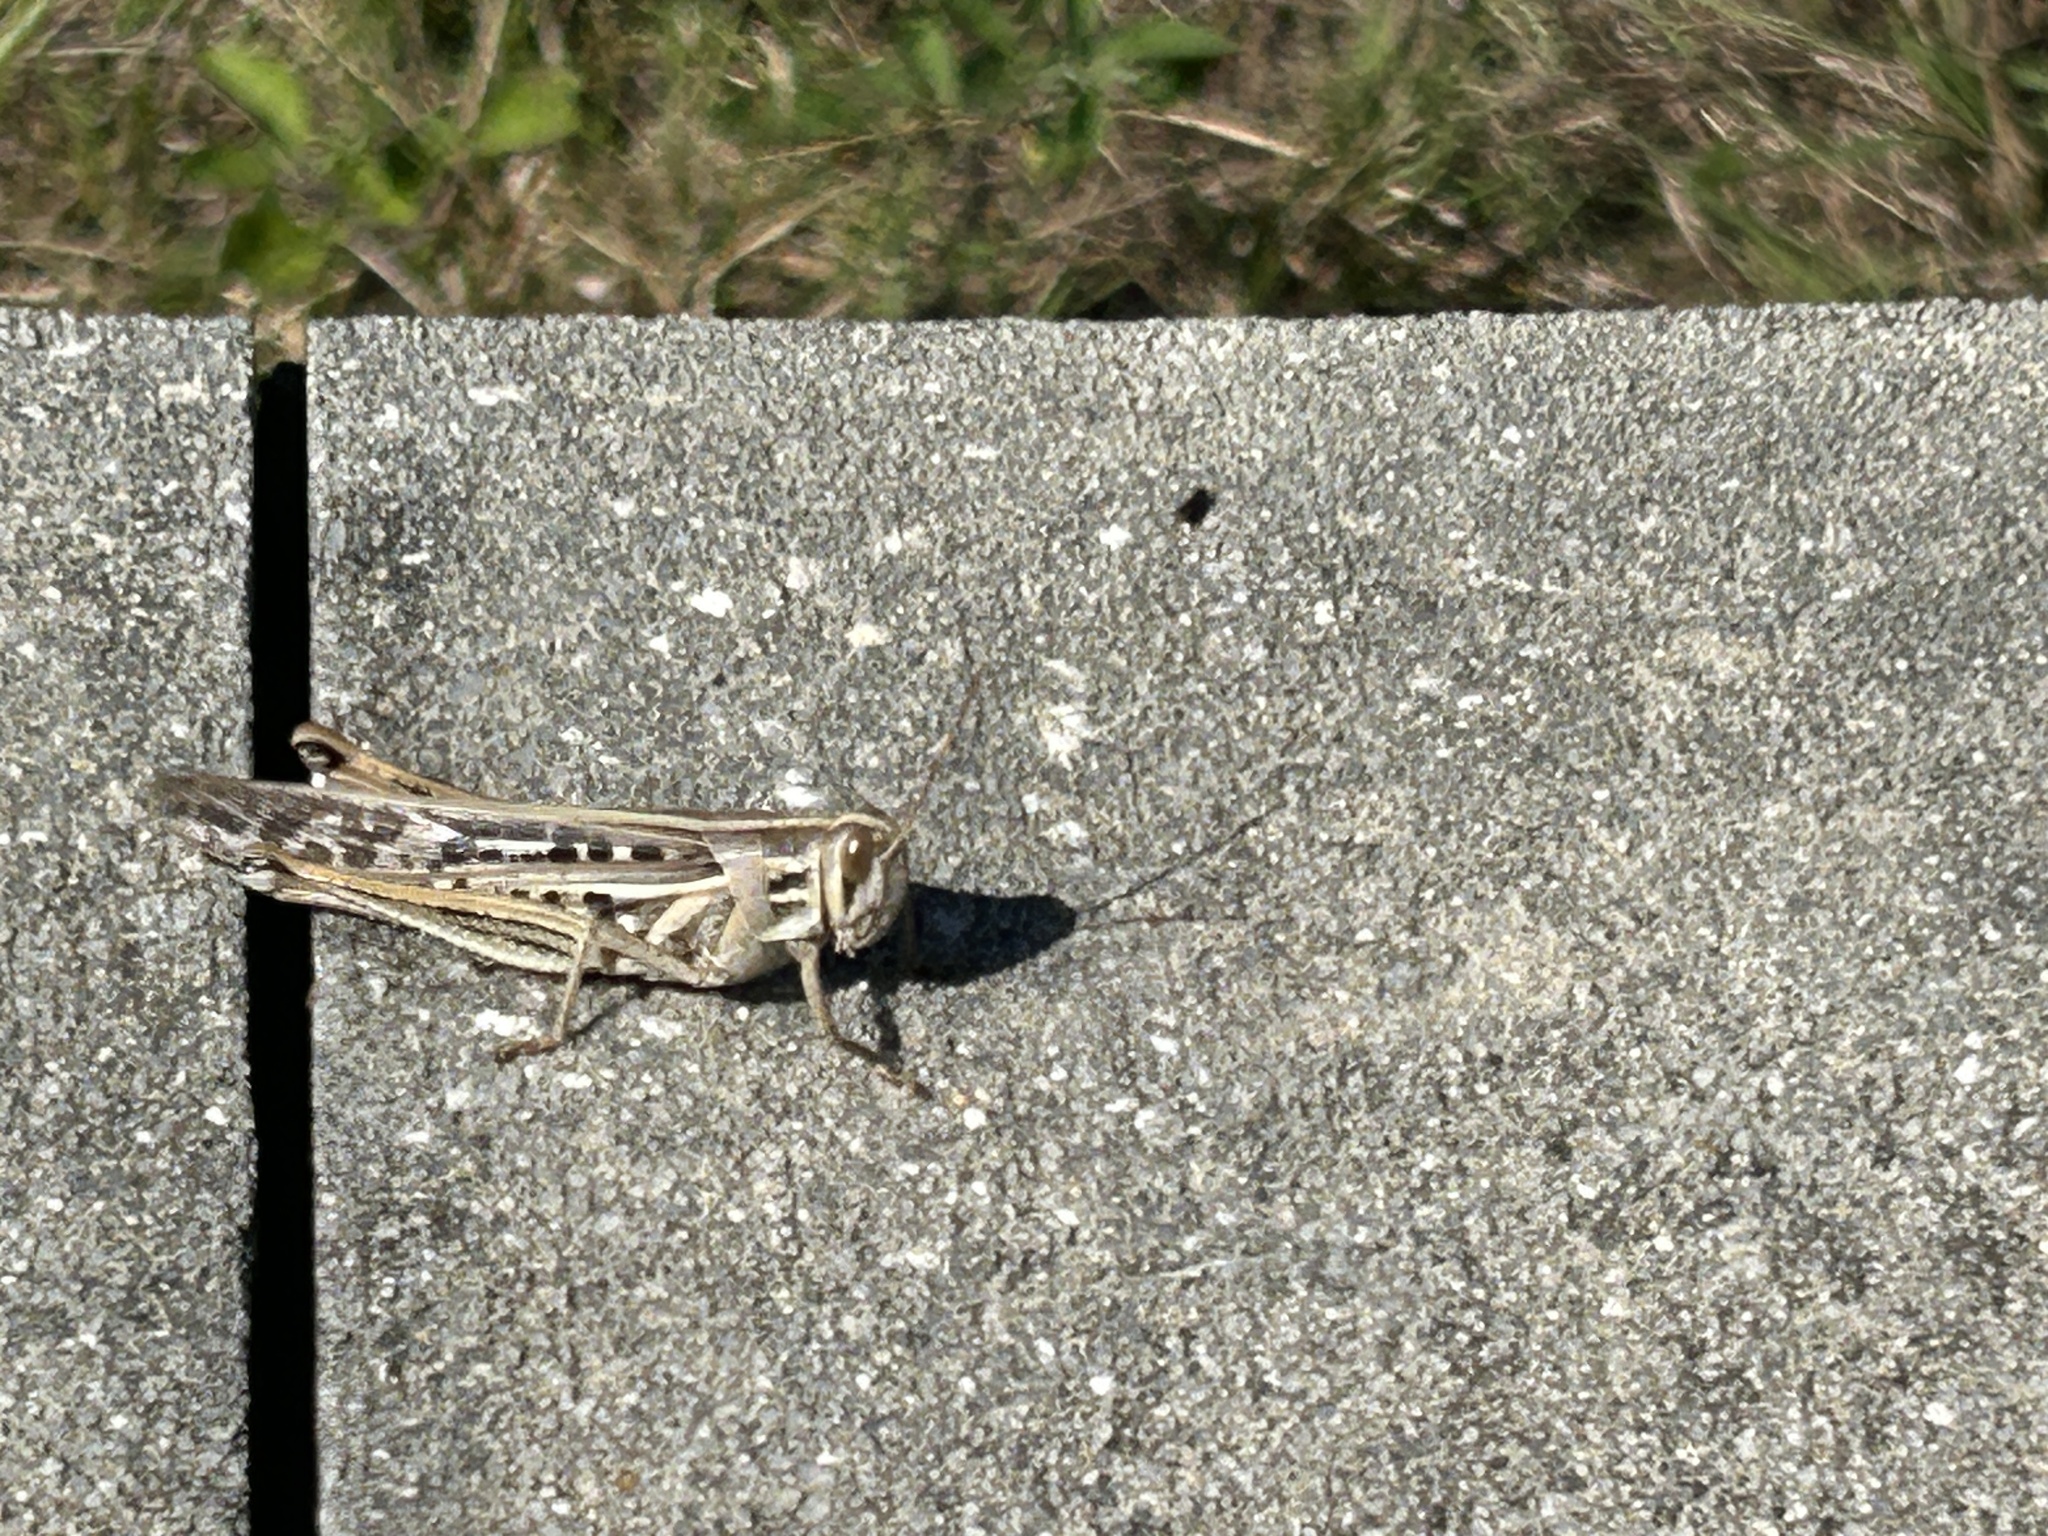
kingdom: Animalia
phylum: Arthropoda
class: Insecta
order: Orthoptera
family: Acrididae
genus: Schistocerca
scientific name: Schistocerca serialis
